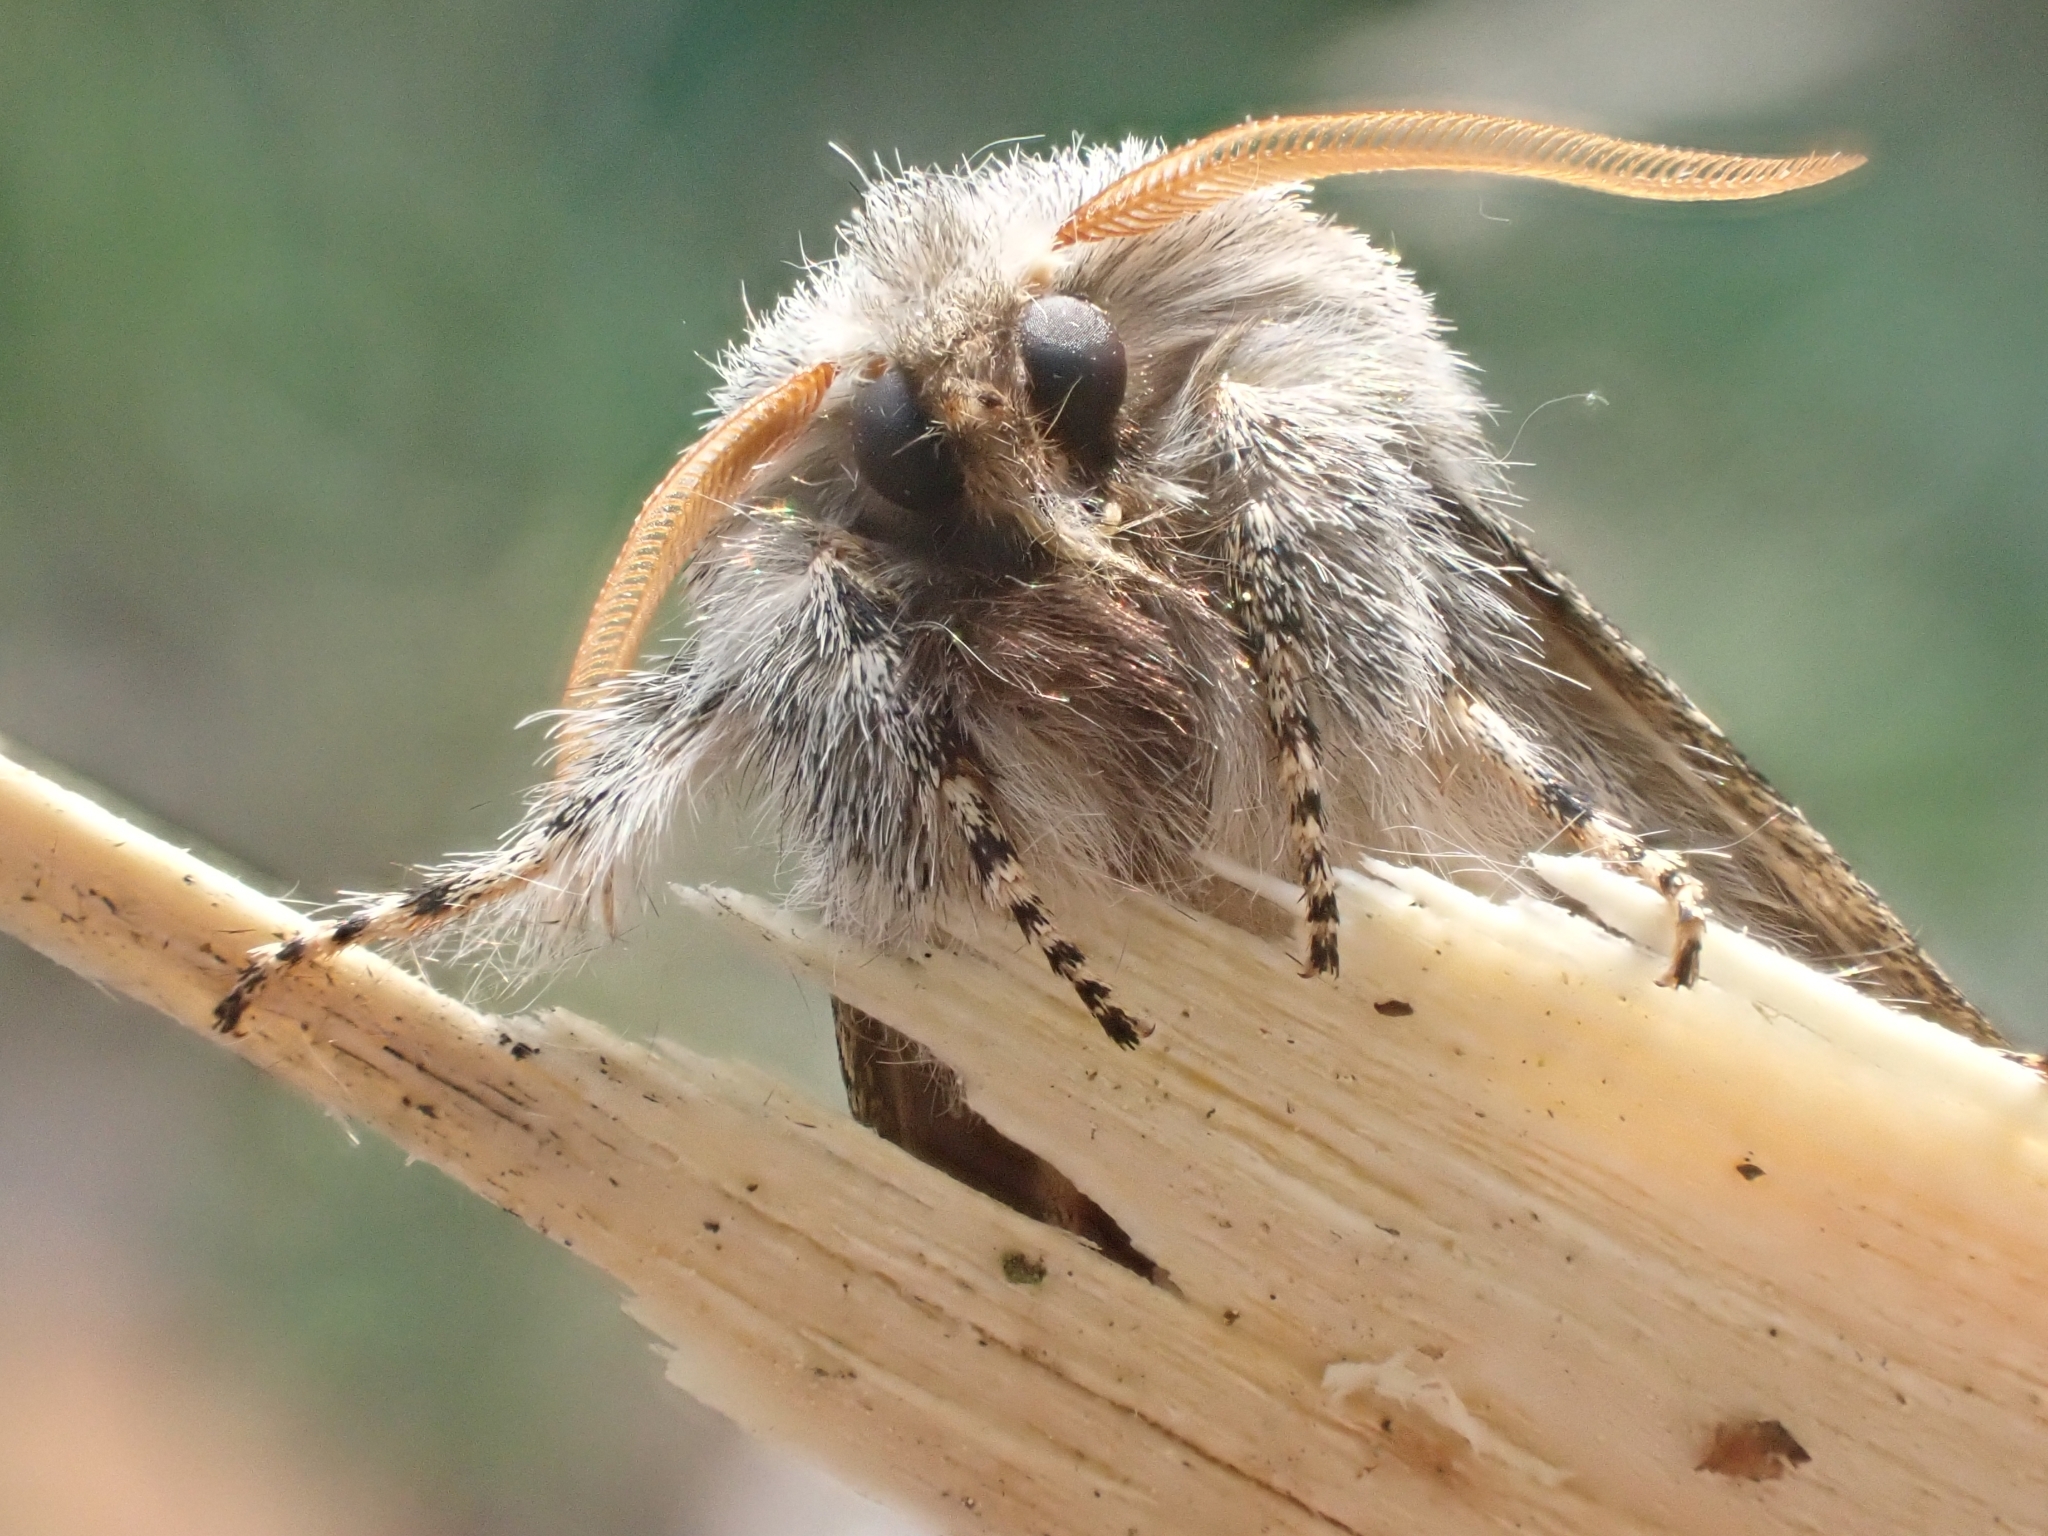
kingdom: Animalia
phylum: Arthropoda
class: Insecta
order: Lepidoptera
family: Noctuidae
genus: Colocasia
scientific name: Colocasia coryli
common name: Nut-tree tussock
